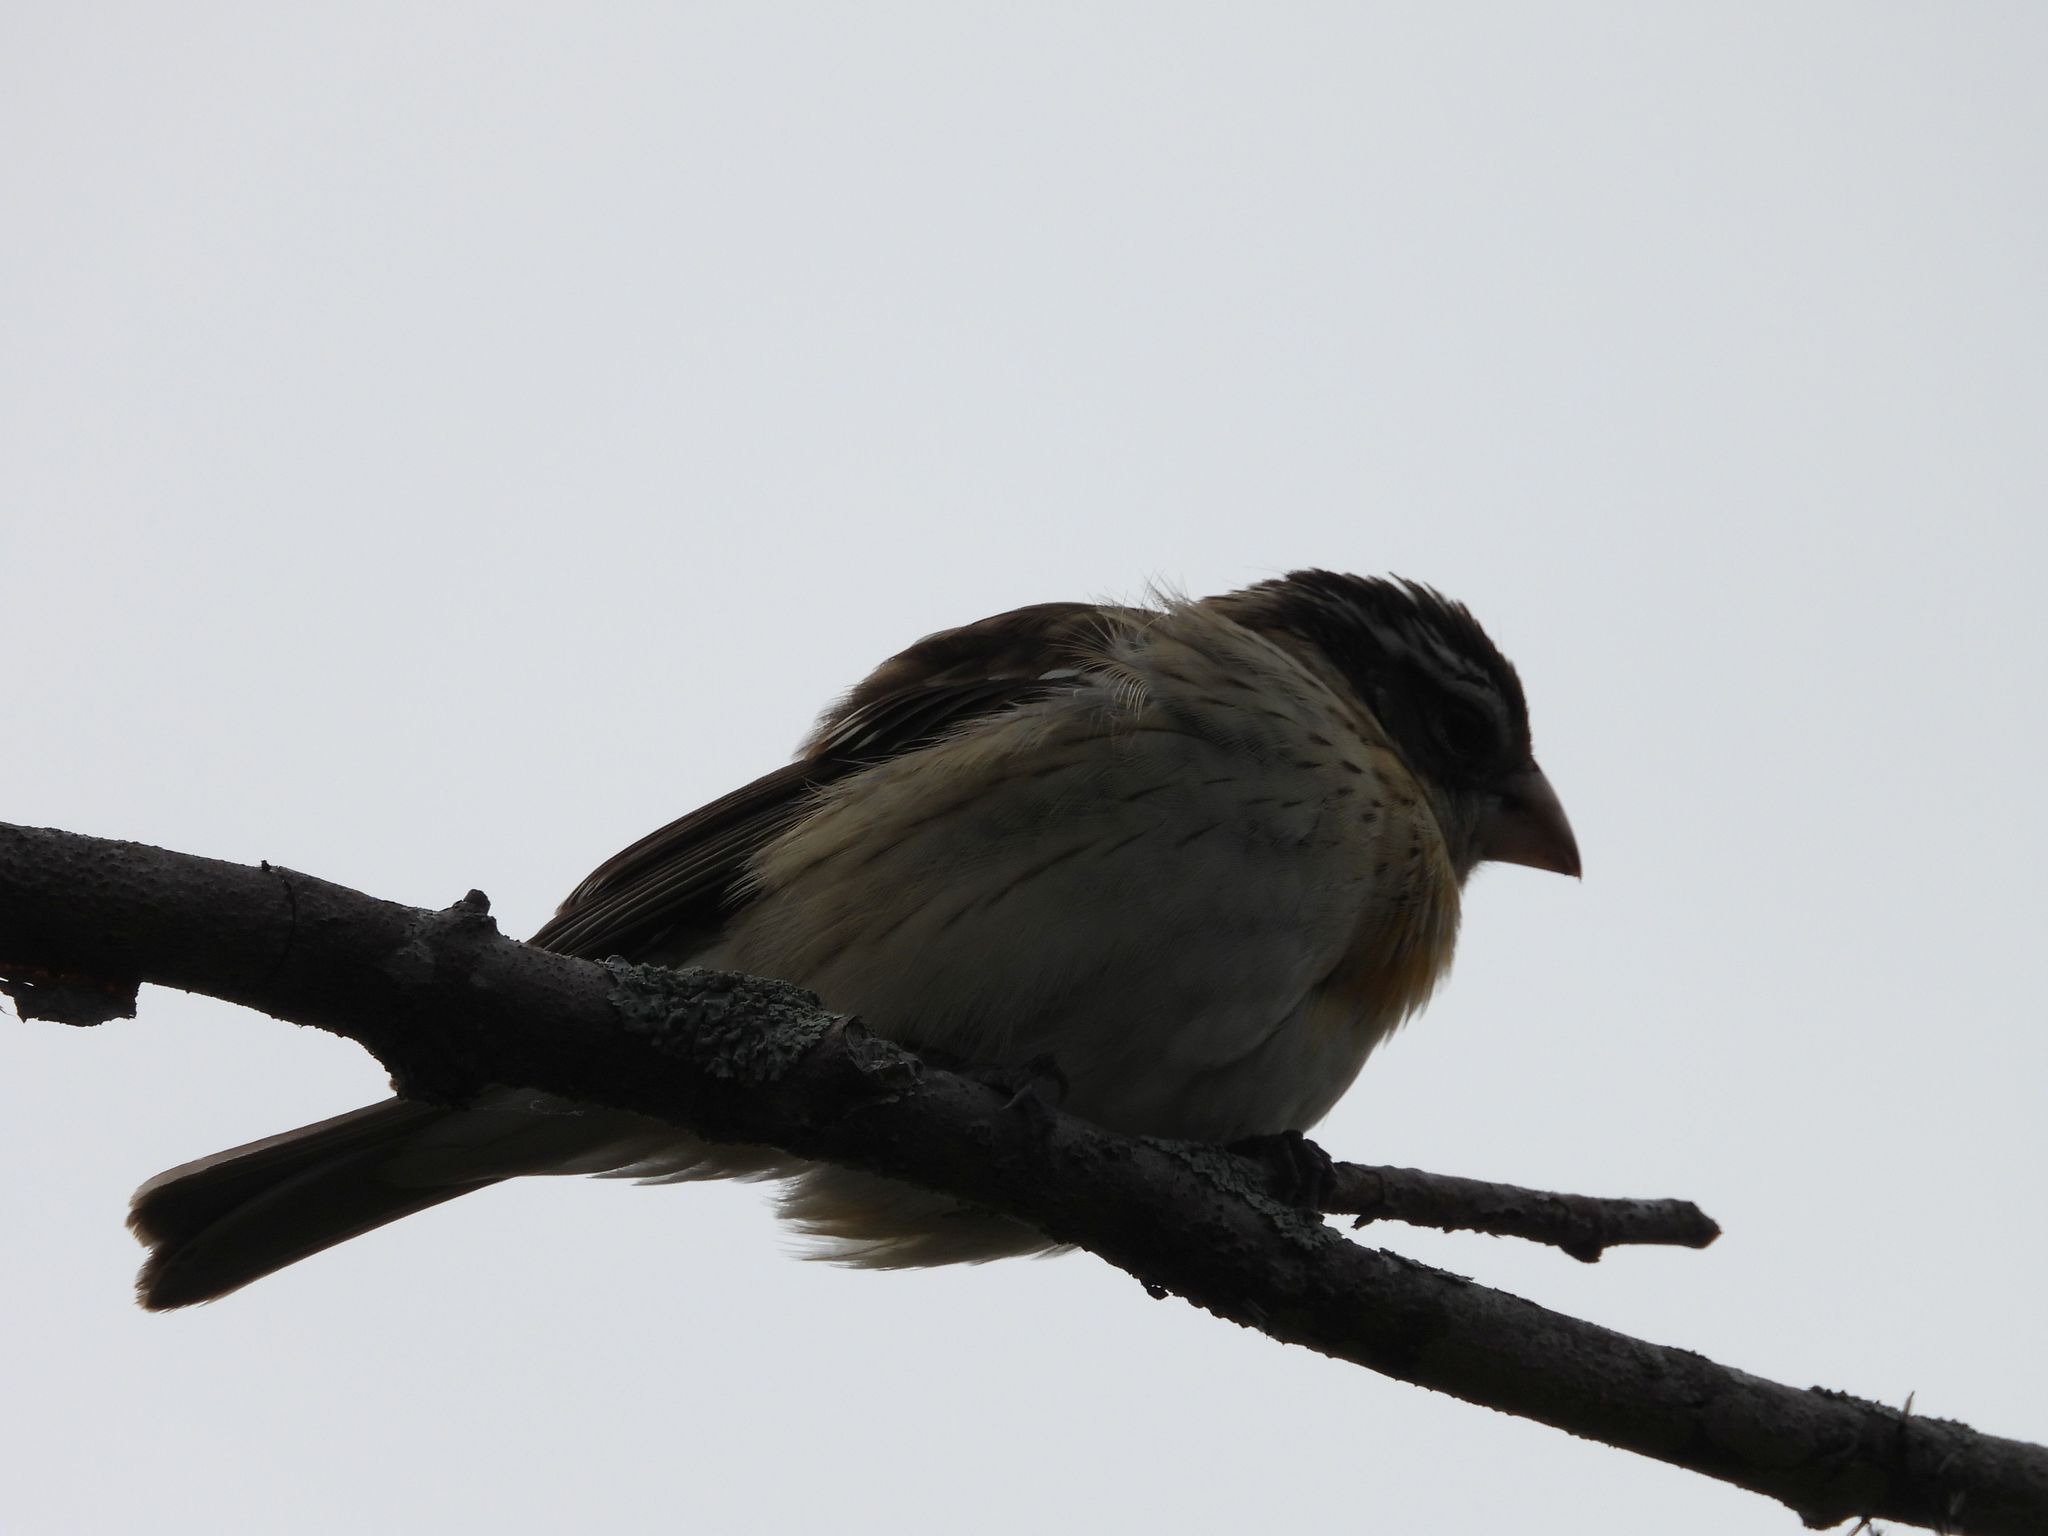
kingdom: Animalia
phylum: Chordata
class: Aves
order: Passeriformes
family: Cardinalidae
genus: Pheucticus
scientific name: Pheucticus ludovicianus
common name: Rose-breasted grosbeak
